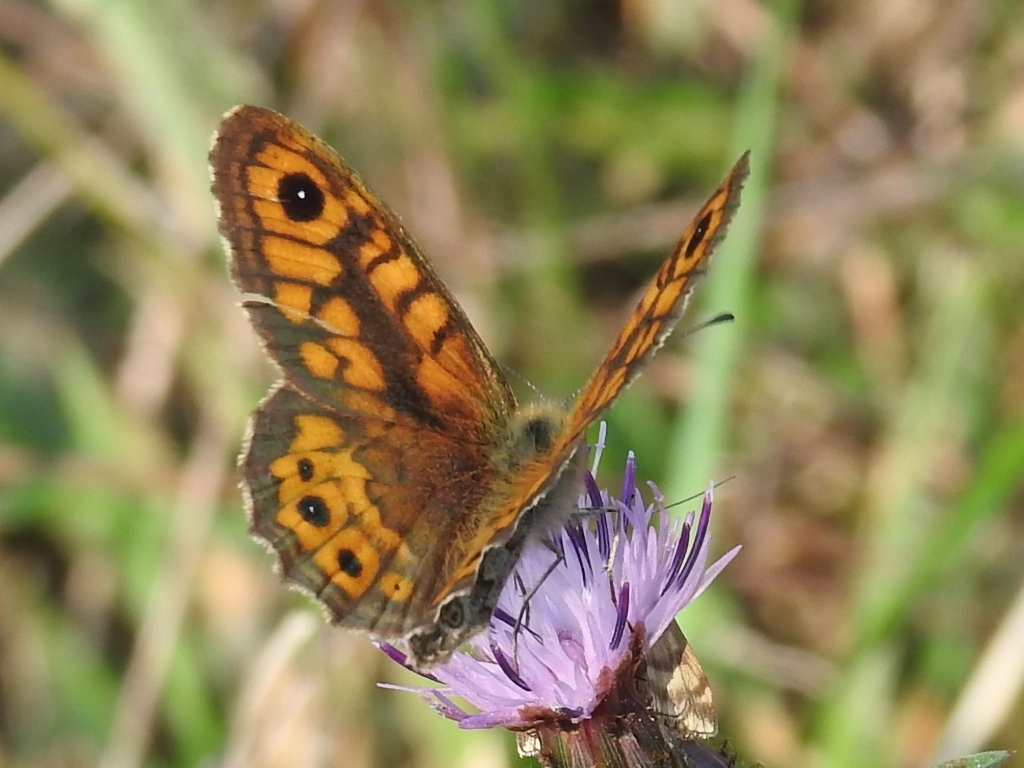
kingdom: Animalia
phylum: Arthropoda
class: Insecta
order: Lepidoptera
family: Nymphalidae
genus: Pararge
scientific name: Pararge Lasiommata megera
